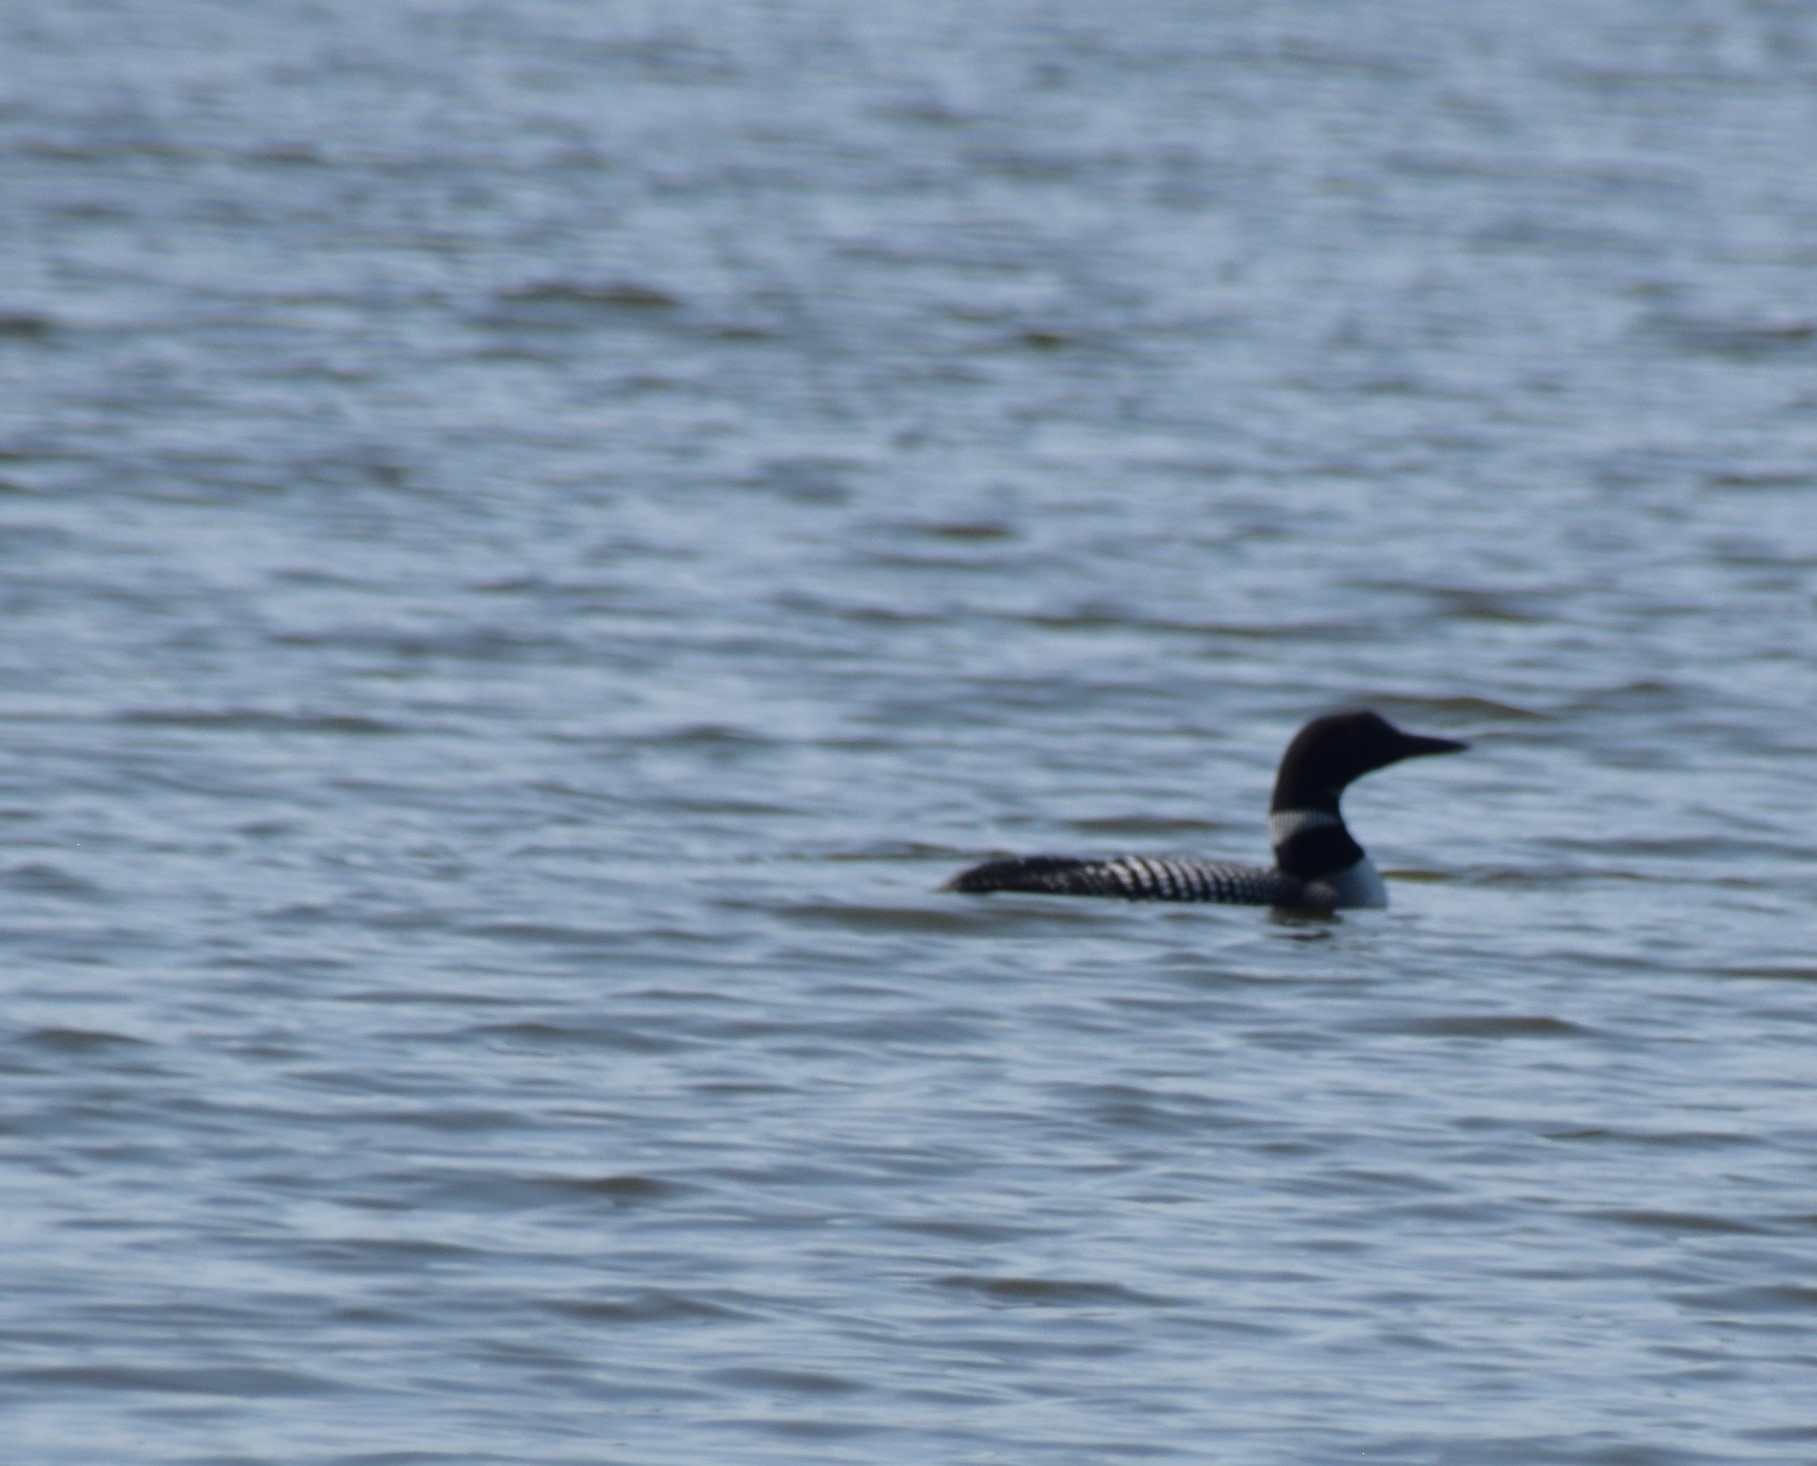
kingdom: Animalia
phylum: Chordata
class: Aves
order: Gaviiformes
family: Gaviidae
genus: Gavia
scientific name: Gavia immer
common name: Common loon
